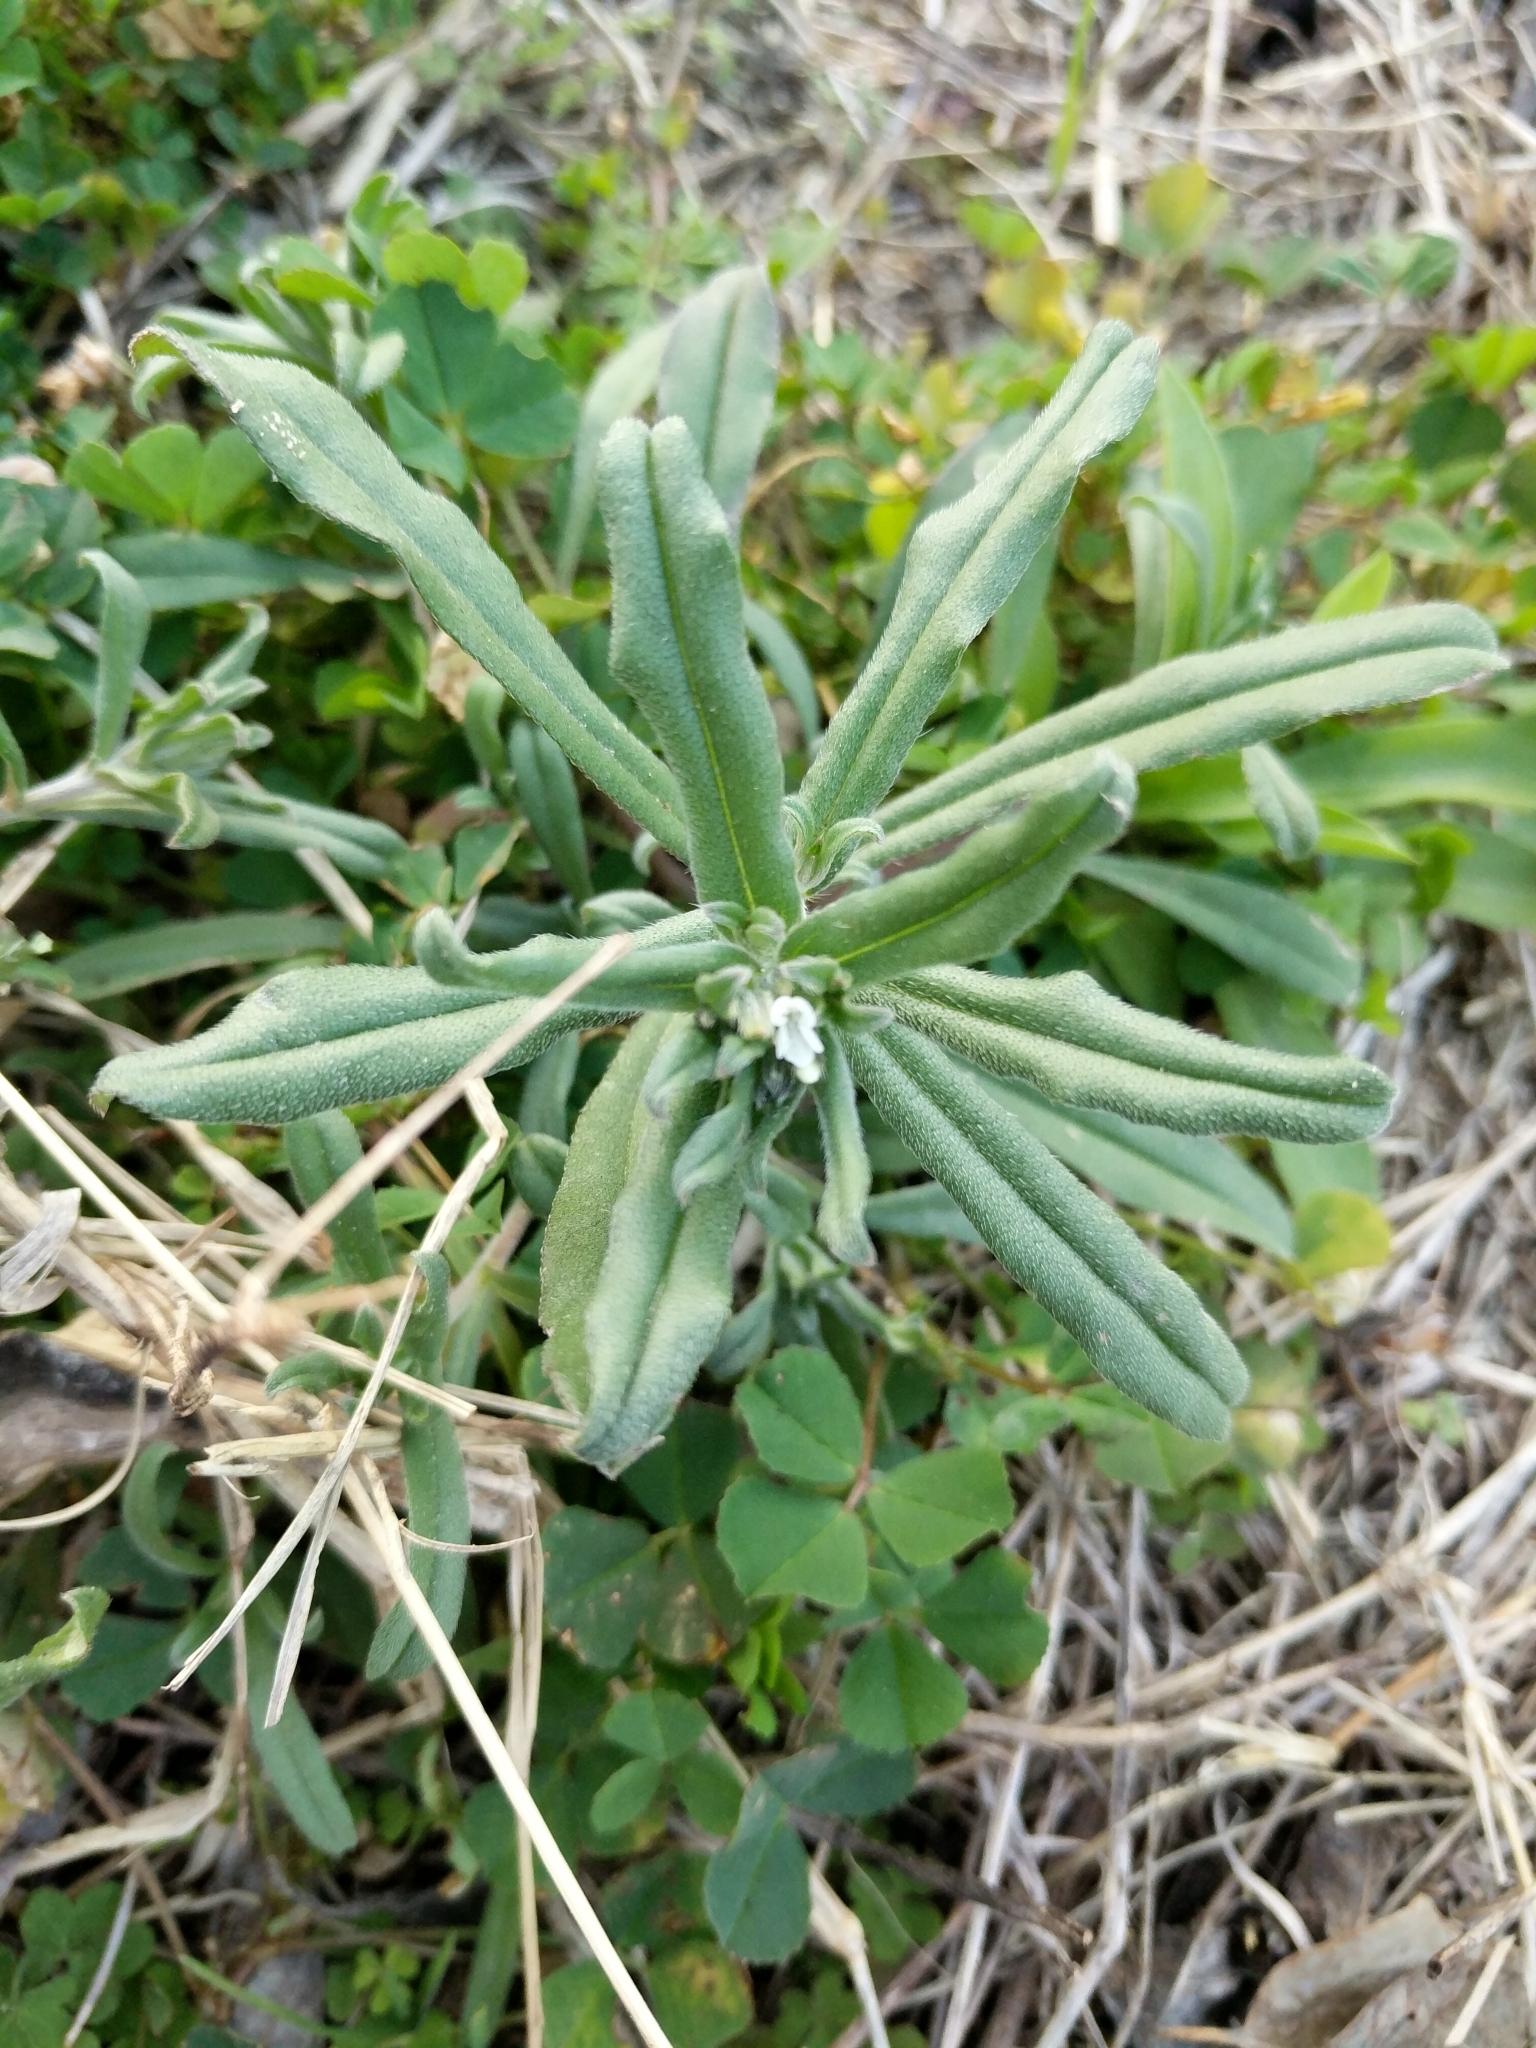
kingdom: Plantae
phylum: Tracheophyta
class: Magnoliopsida
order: Boraginales
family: Boraginaceae
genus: Buglossoides
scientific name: Buglossoides arvensis
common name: Corn gromwell
